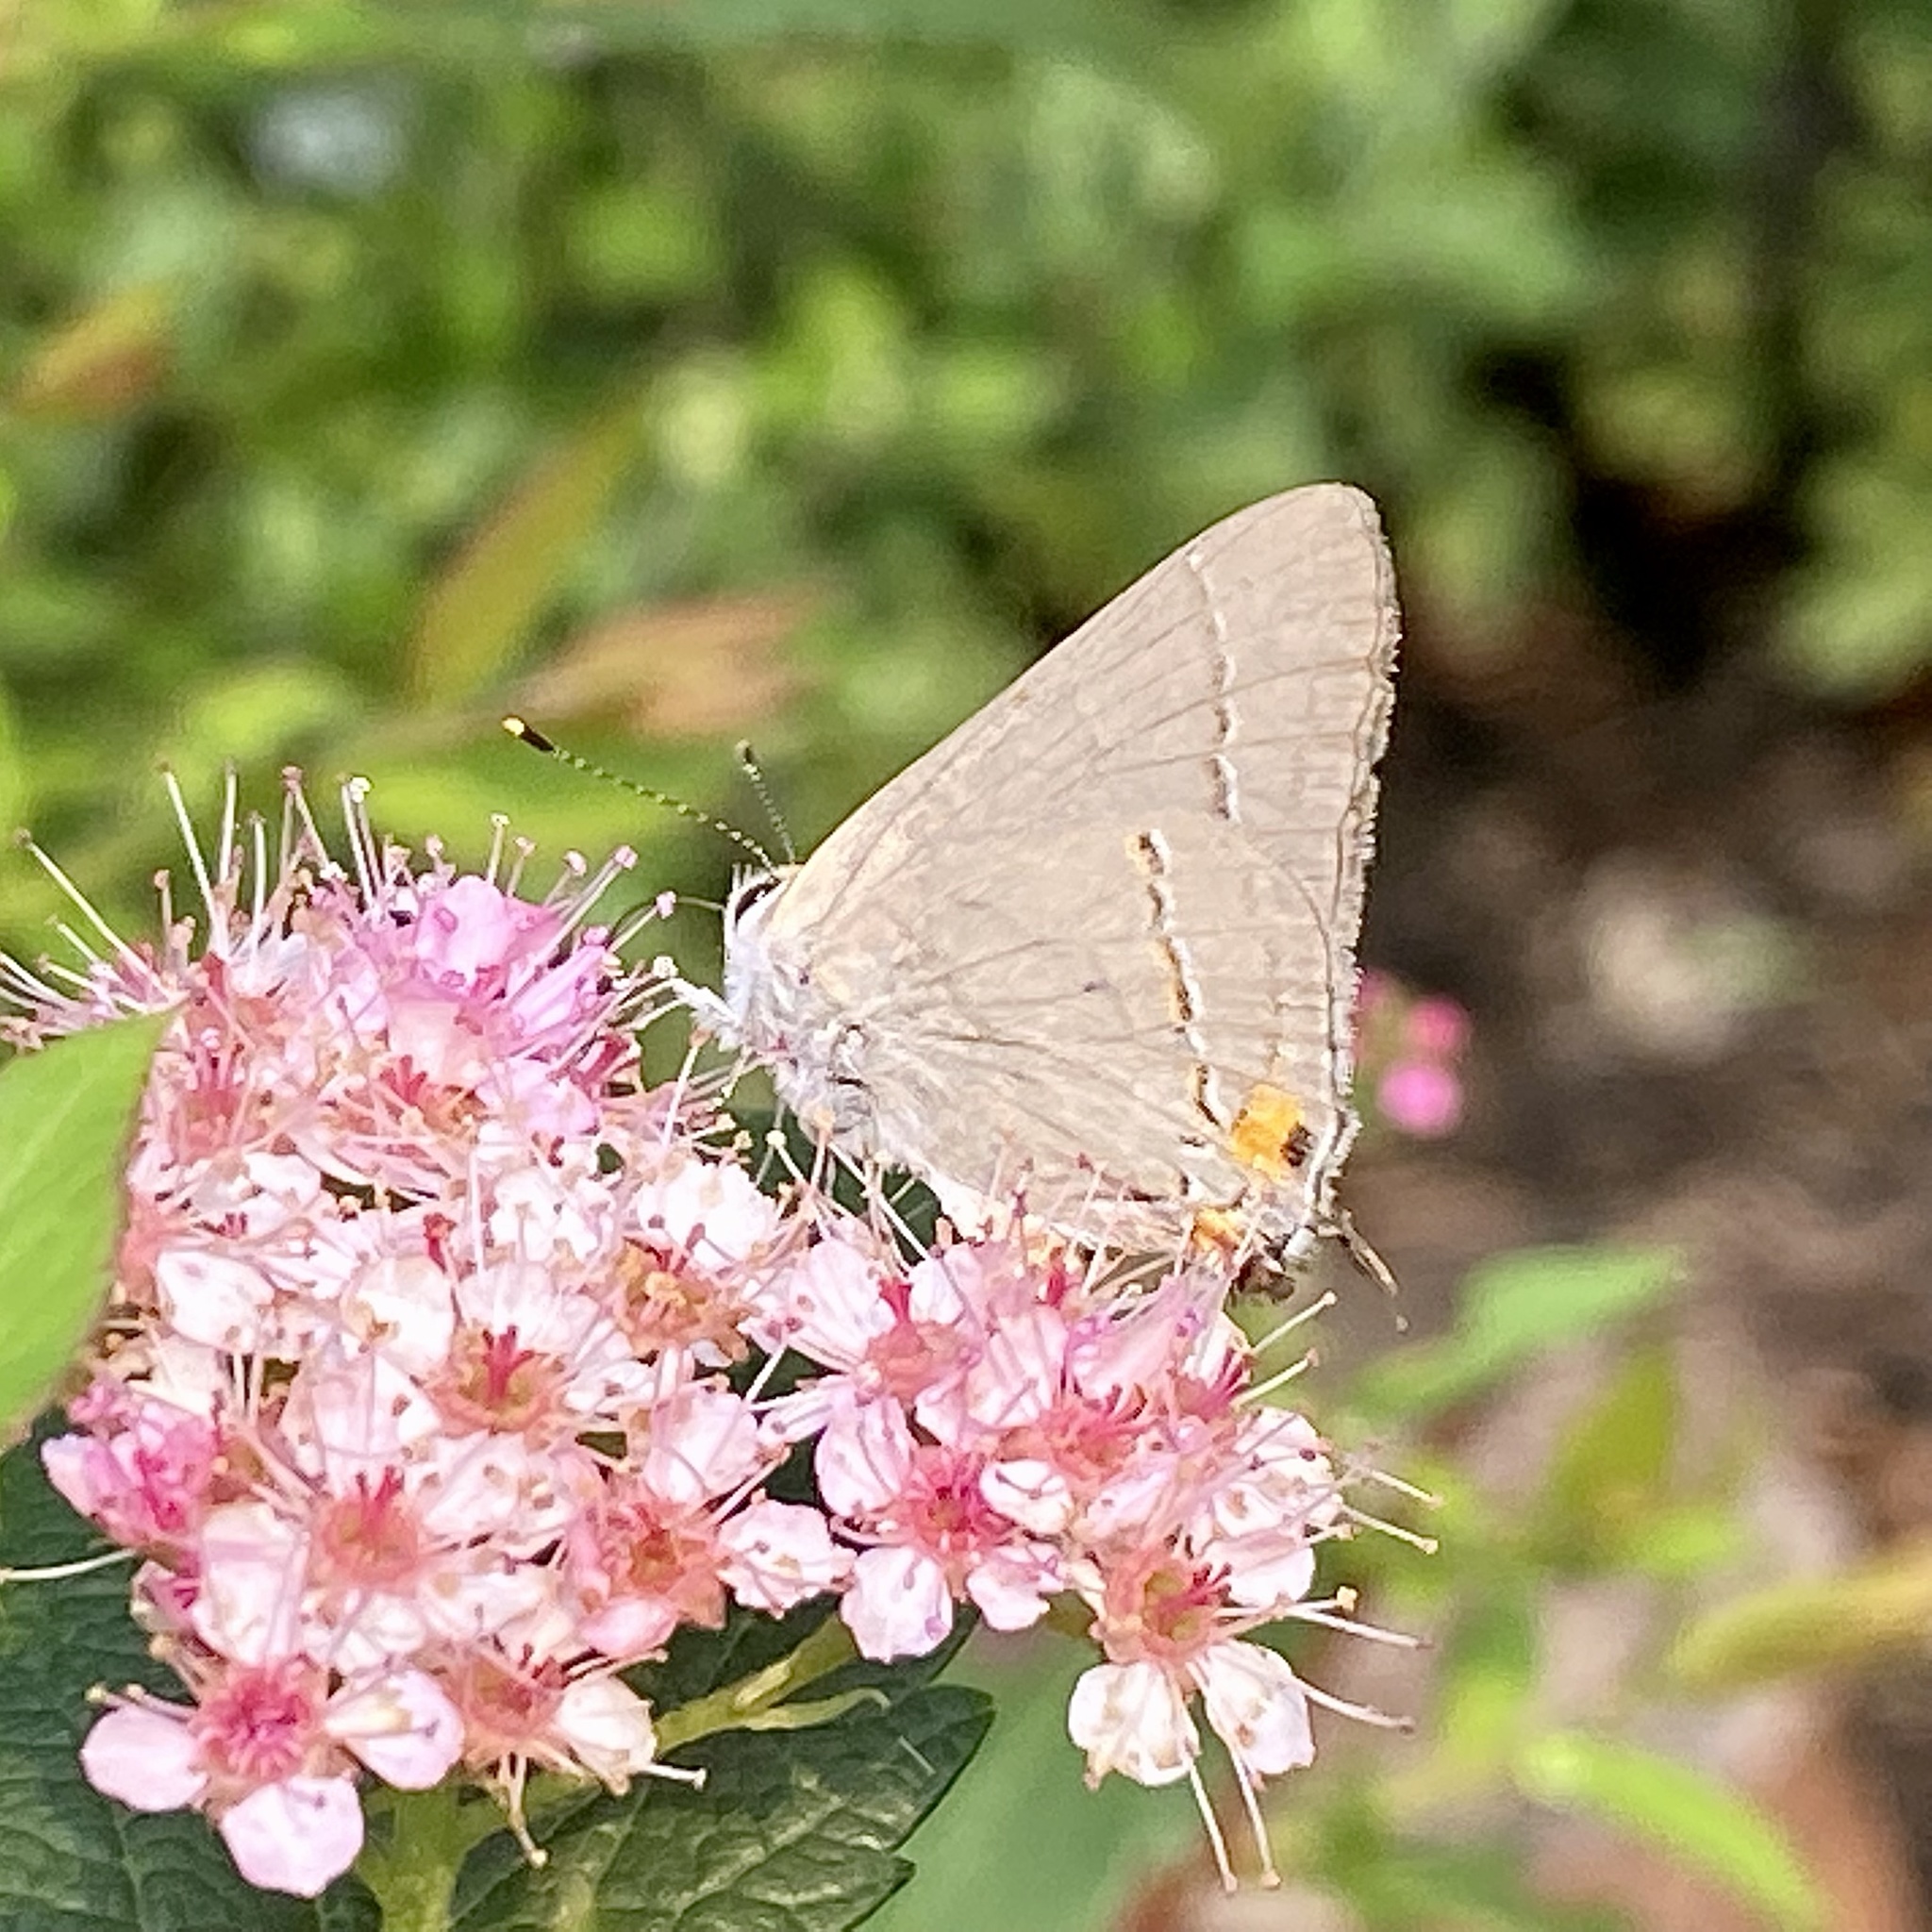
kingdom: Animalia
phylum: Arthropoda
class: Insecta
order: Lepidoptera
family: Lycaenidae
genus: Strymon
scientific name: Strymon melinus
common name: Gray hairstreak
